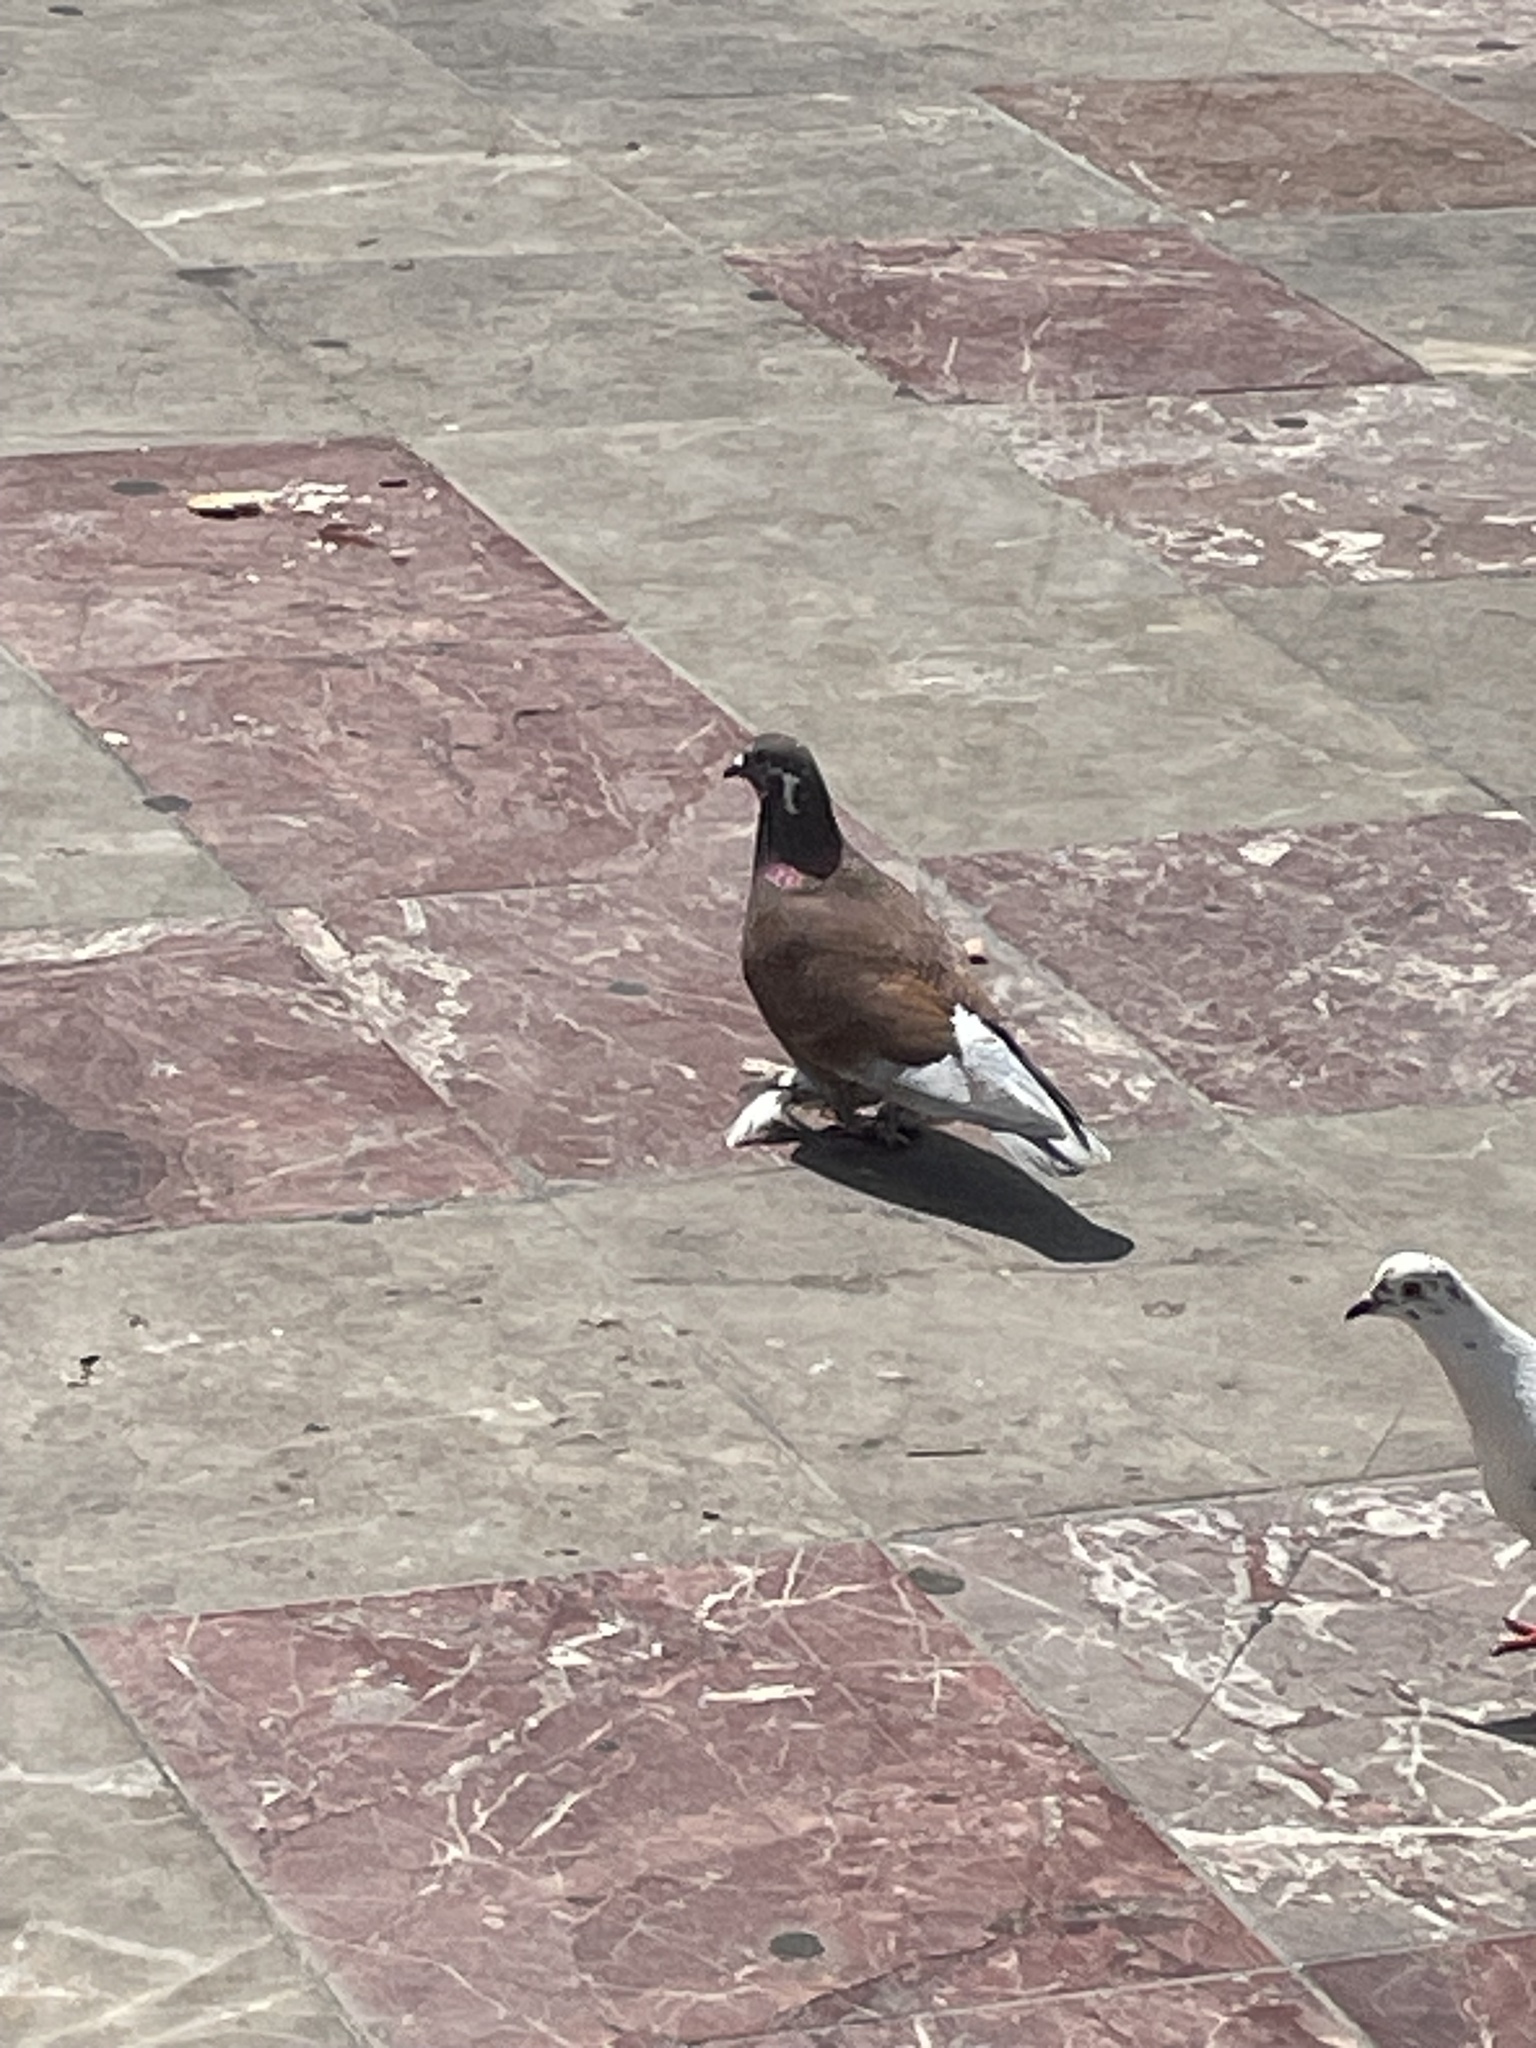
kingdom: Animalia
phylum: Chordata
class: Aves
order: Columbiformes
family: Columbidae
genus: Columba
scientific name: Columba livia
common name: Rock pigeon
